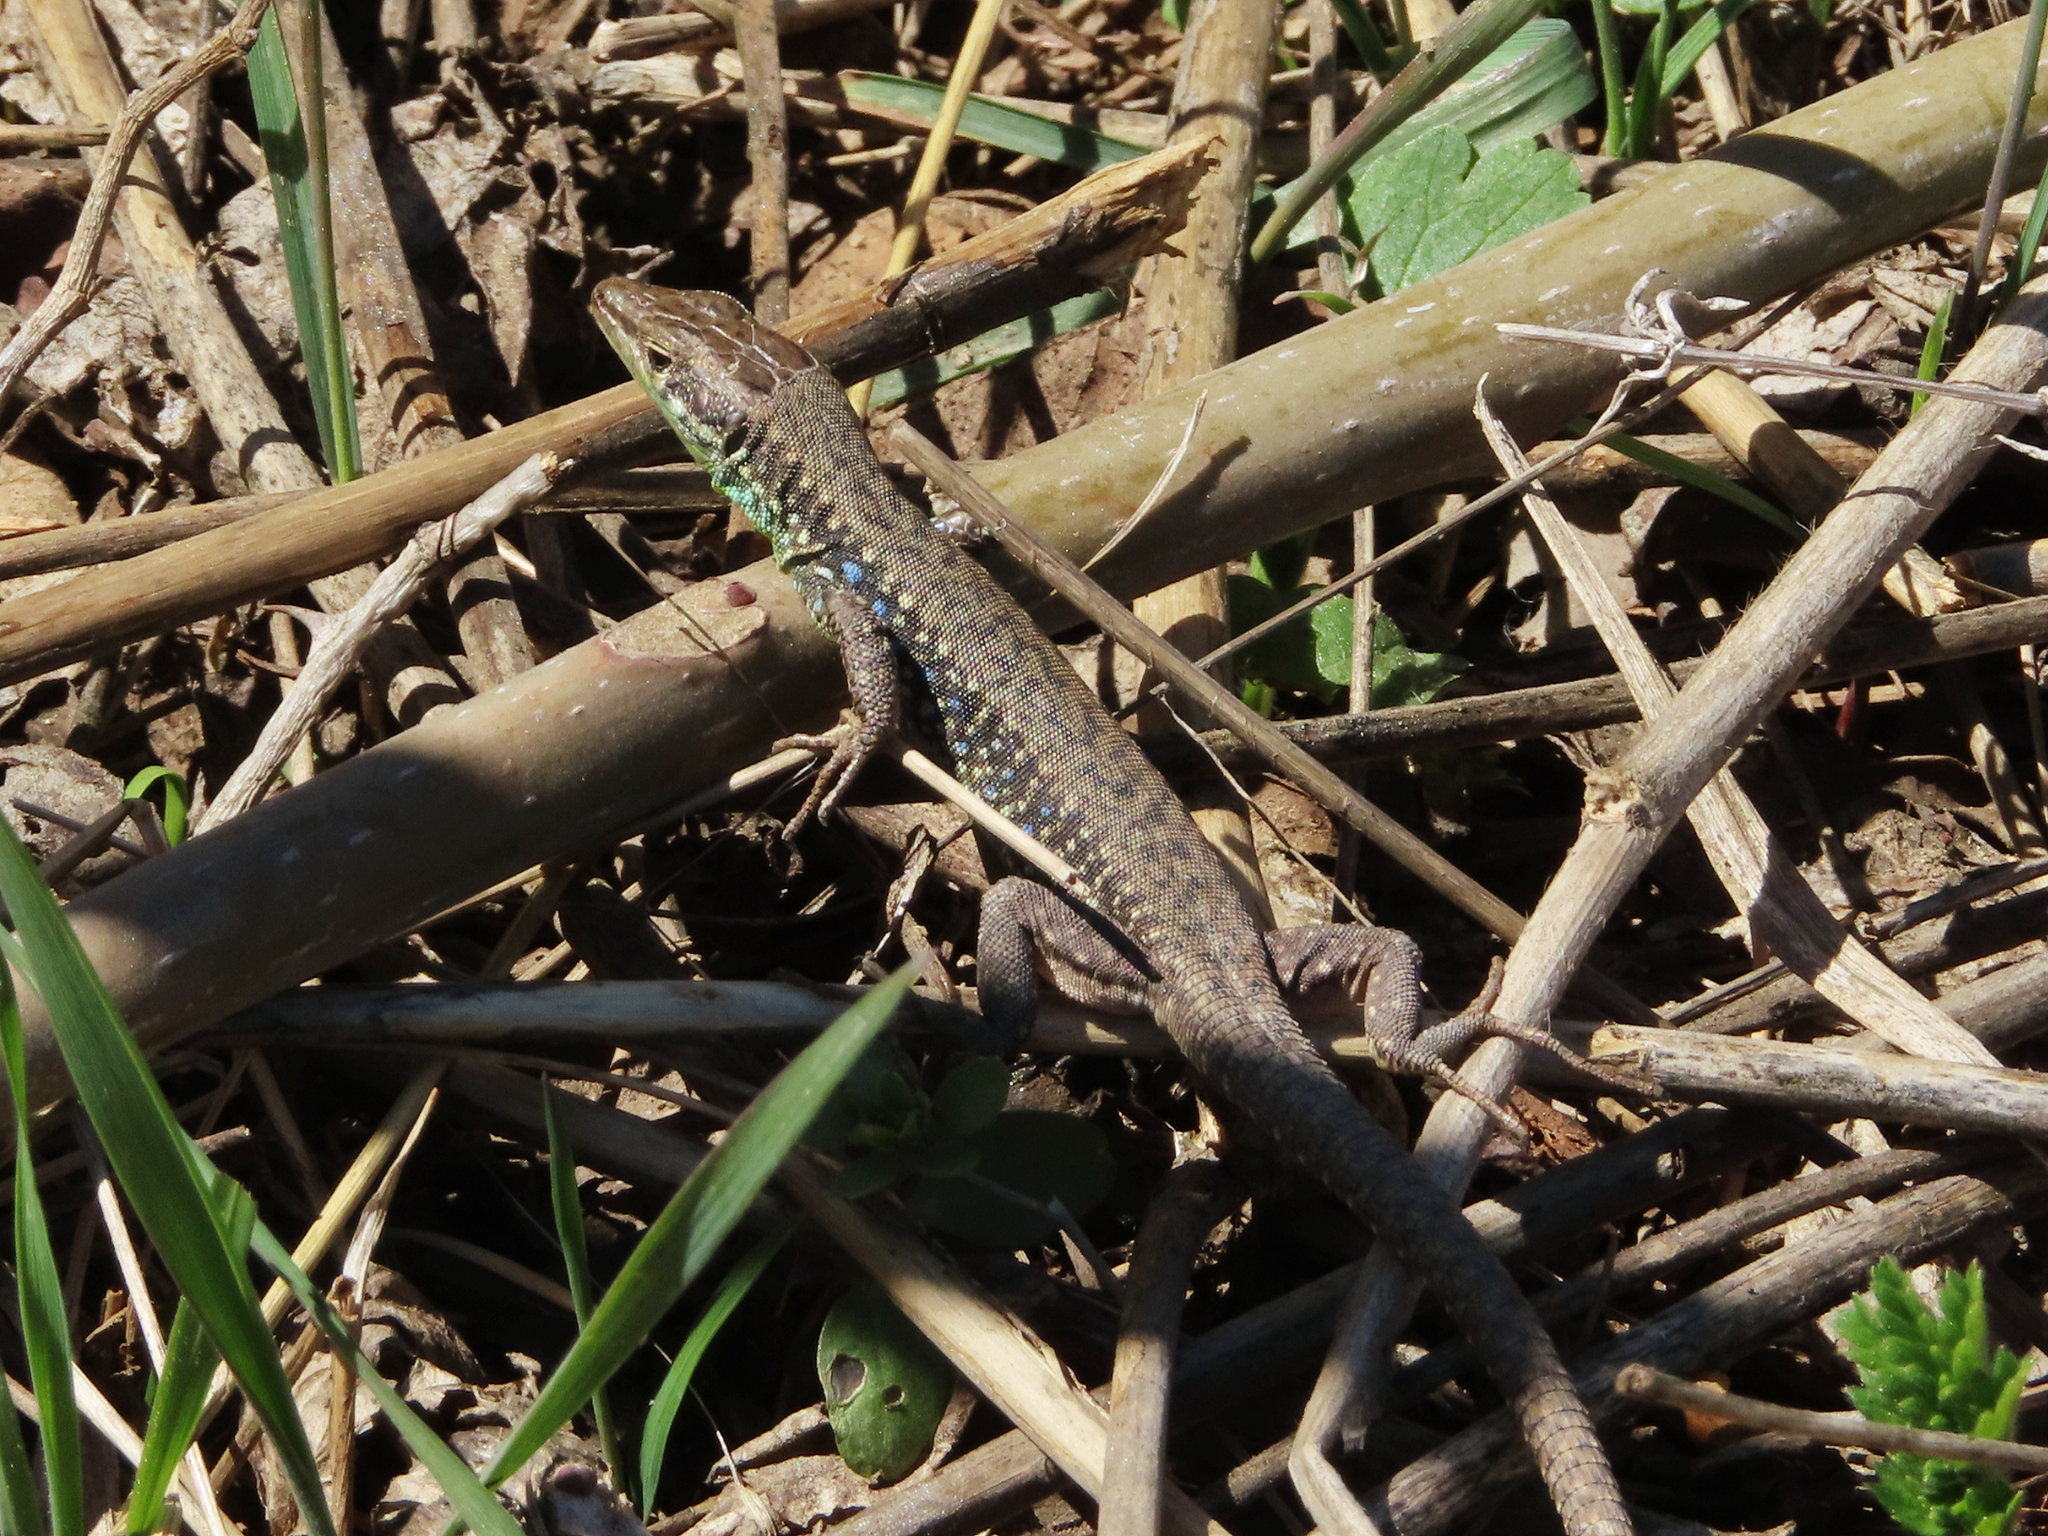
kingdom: Animalia
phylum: Chordata
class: Squamata
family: Lacertidae
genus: Darevskia
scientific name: Darevskia raddei
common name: Radde's lizard
